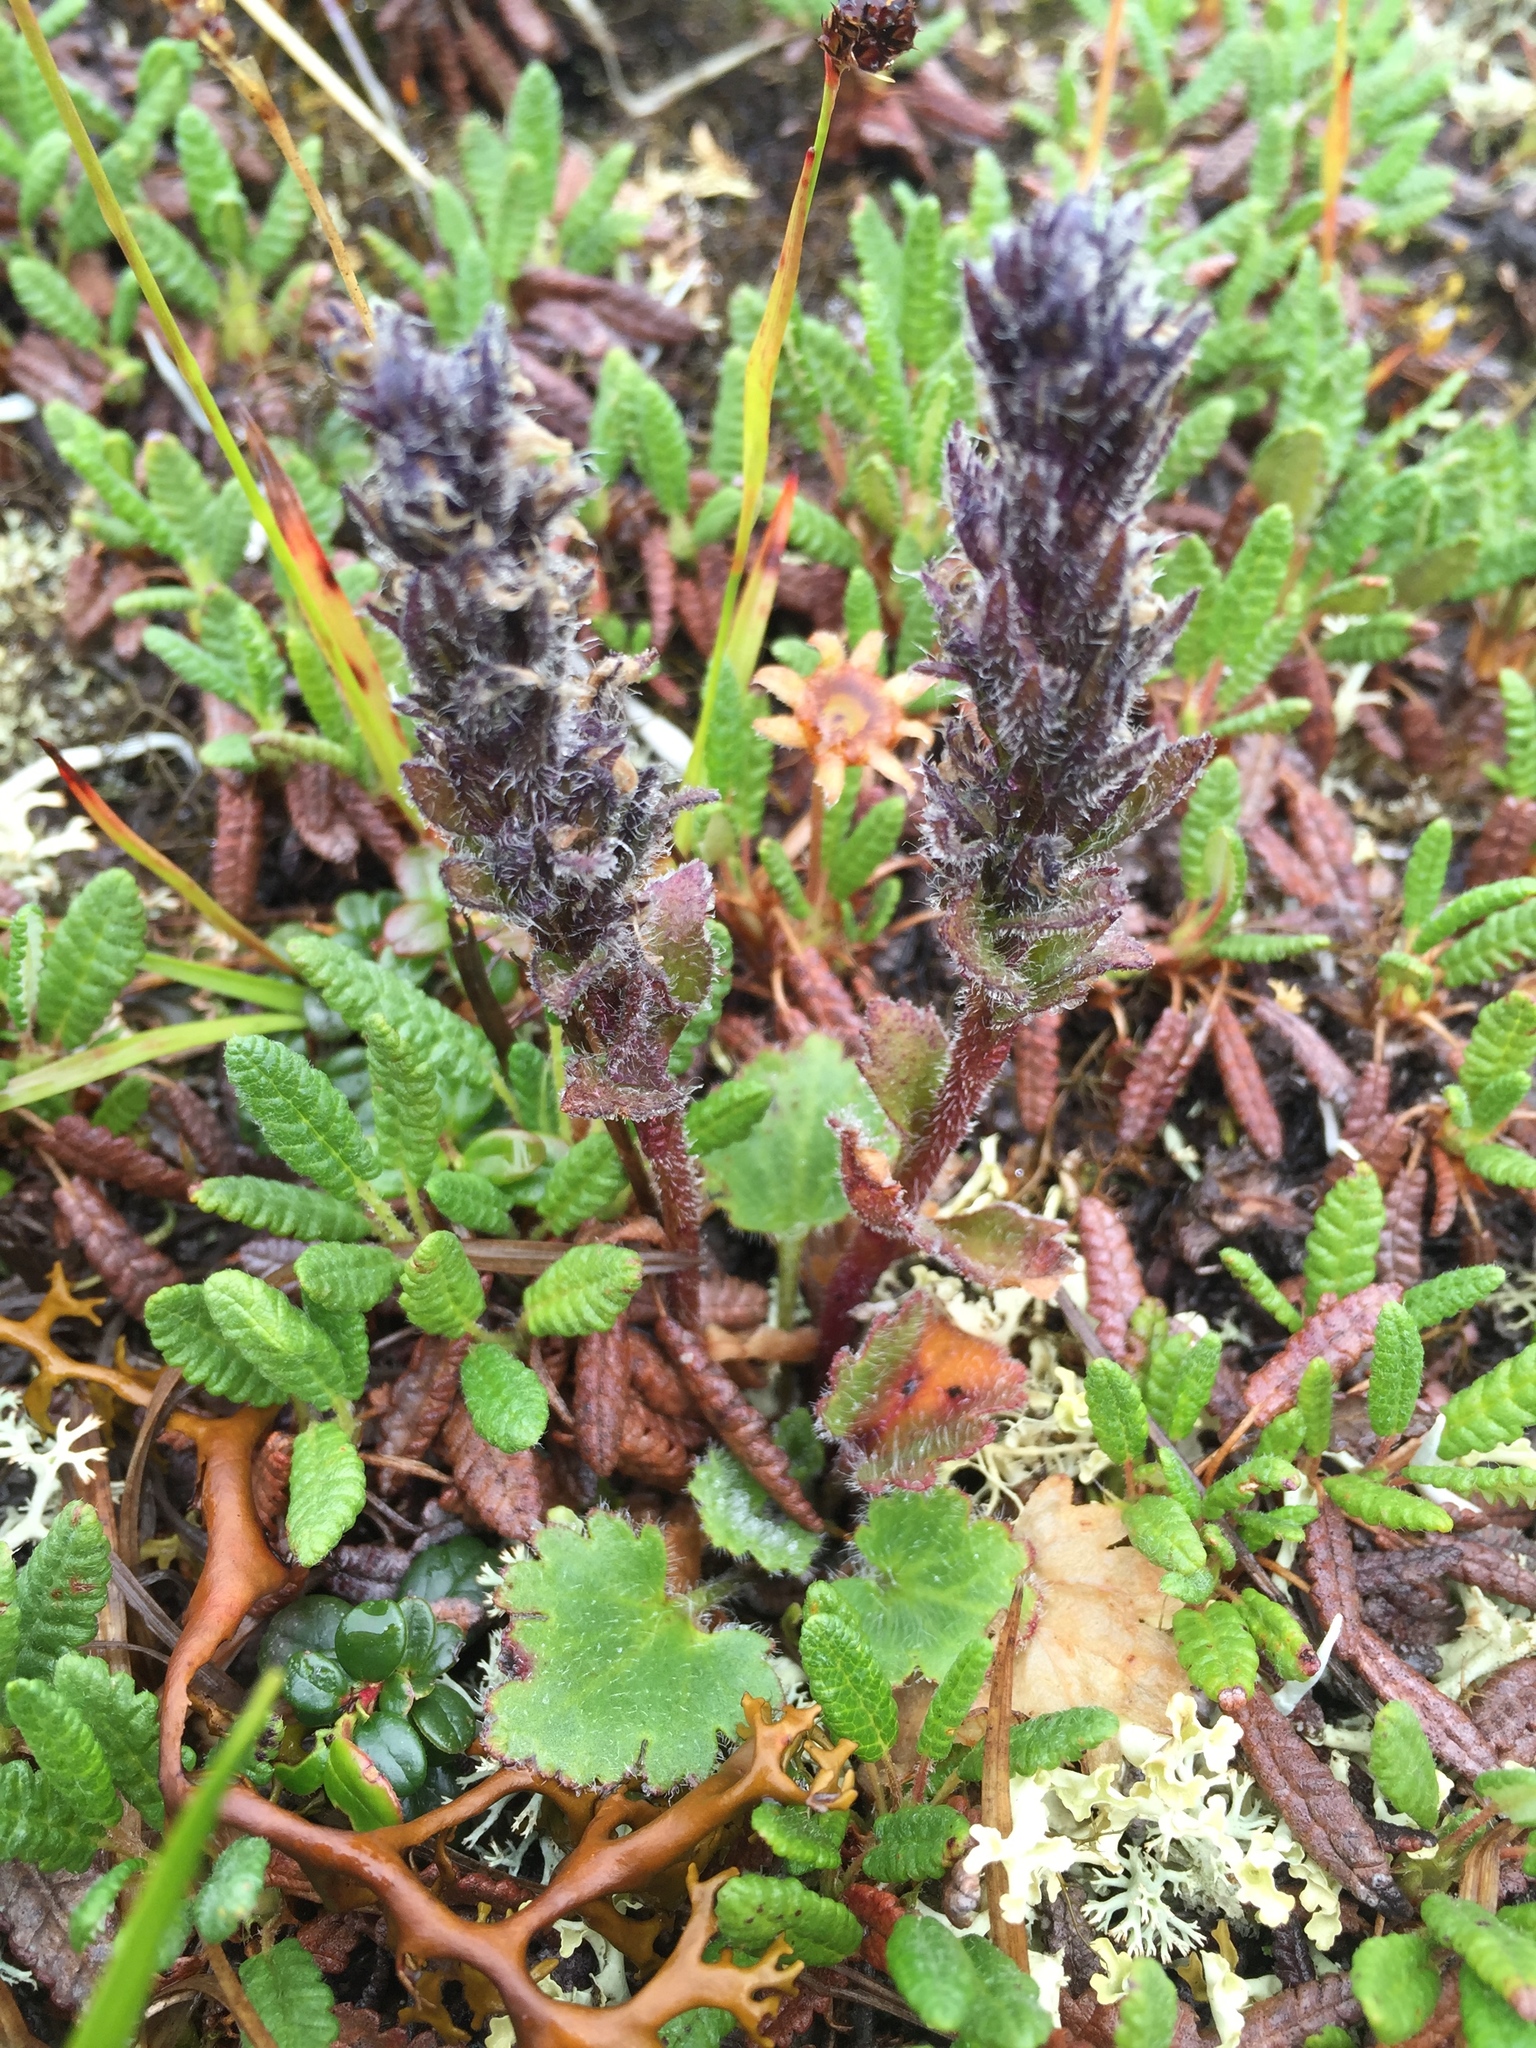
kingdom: Plantae
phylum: Tracheophyta
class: Magnoliopsida
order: Lamiales
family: Plantaginaceae
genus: Synthyris
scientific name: Synthyris borealis
